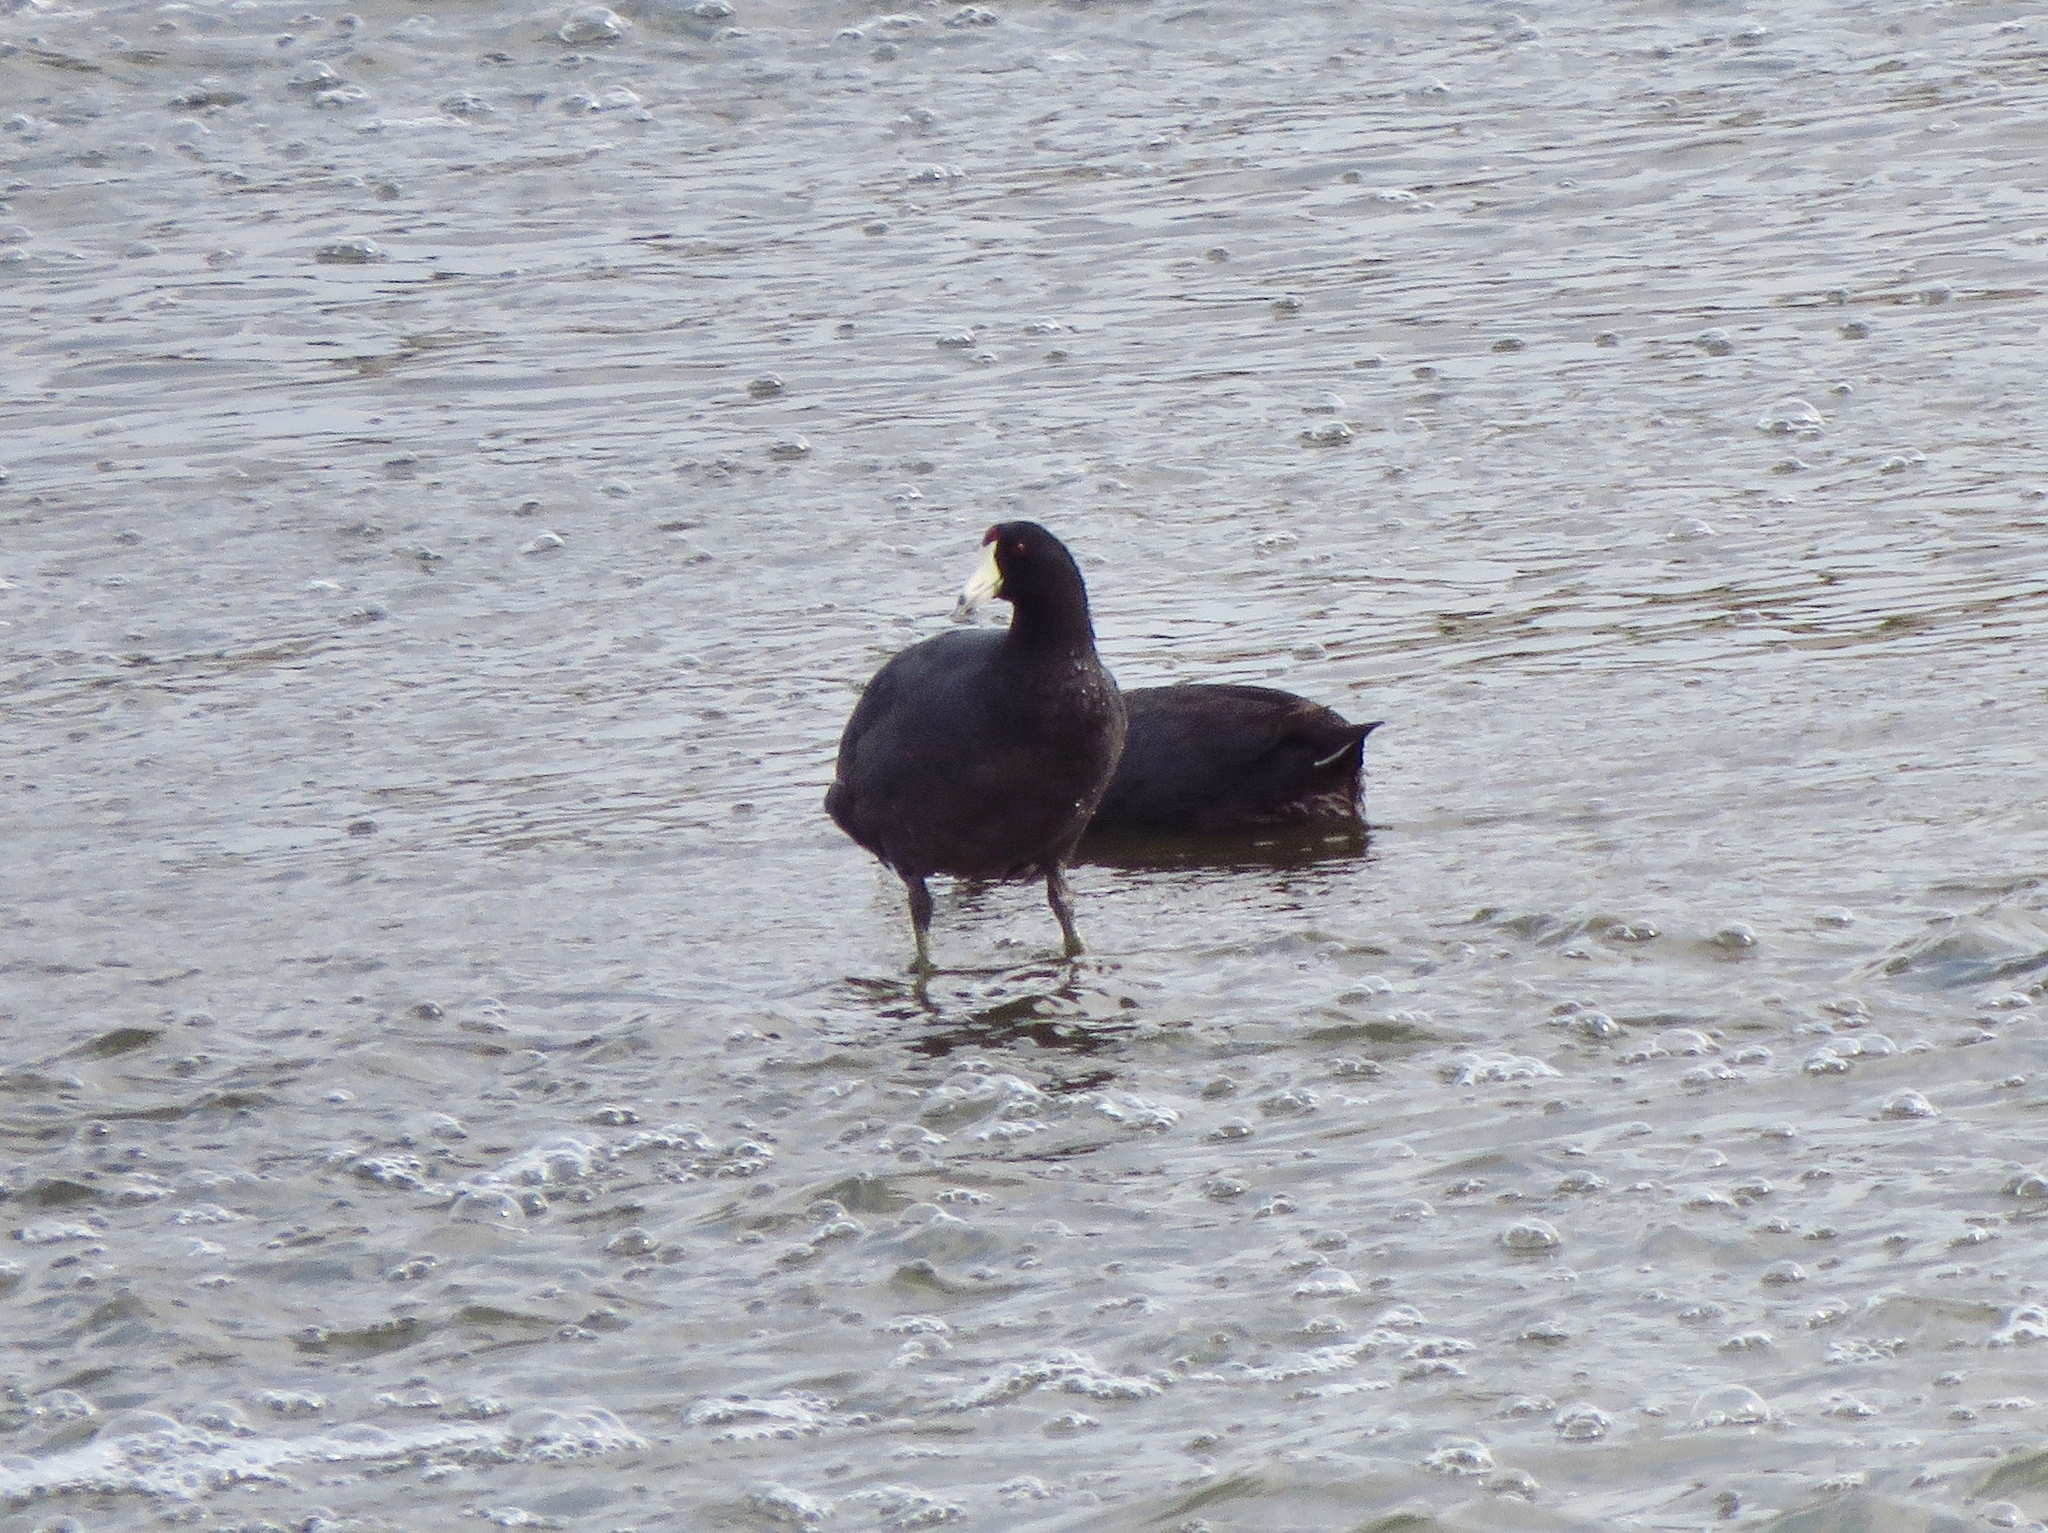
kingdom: Animalia
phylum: Chordata
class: Aves
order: Gruiformes
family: Rallidae
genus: Fulica
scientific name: Fulica americana
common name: American coot
